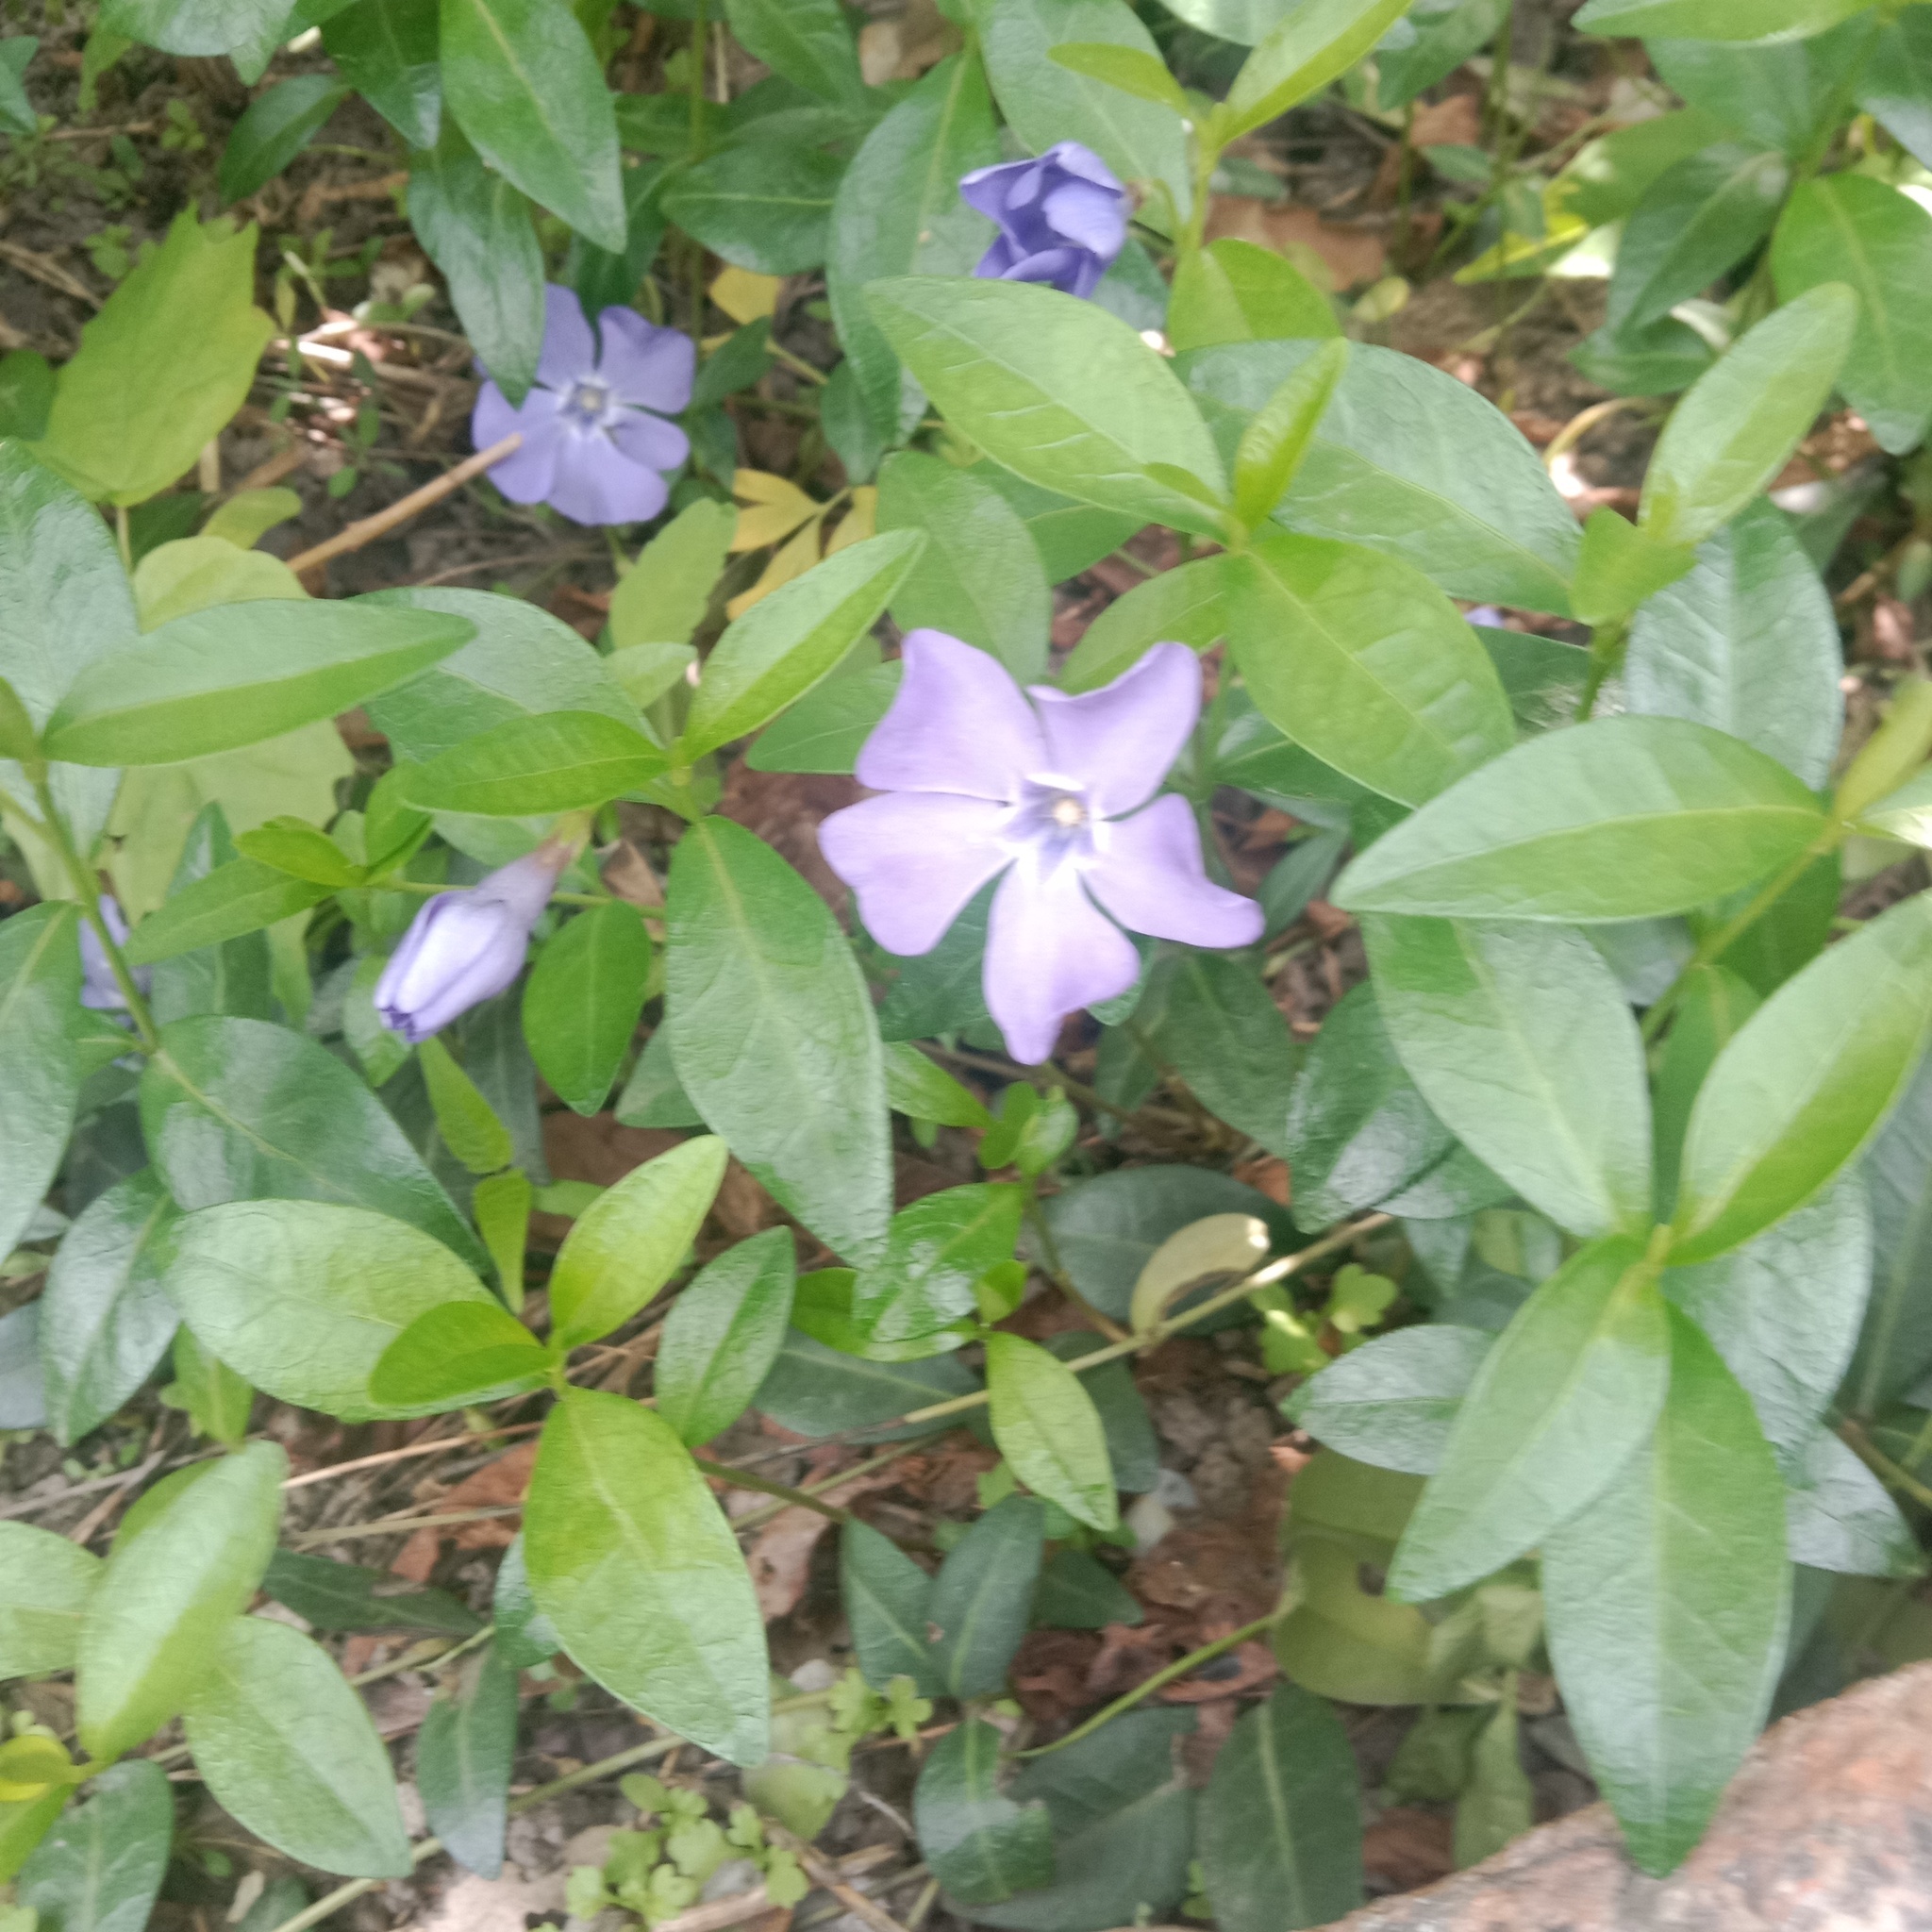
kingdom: Plantae
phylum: Tracheophyta
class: Magnoliopsida
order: Gentianales
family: Apocynaceae
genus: Vinca
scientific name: Vinca minor
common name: Lesser periwinkle
